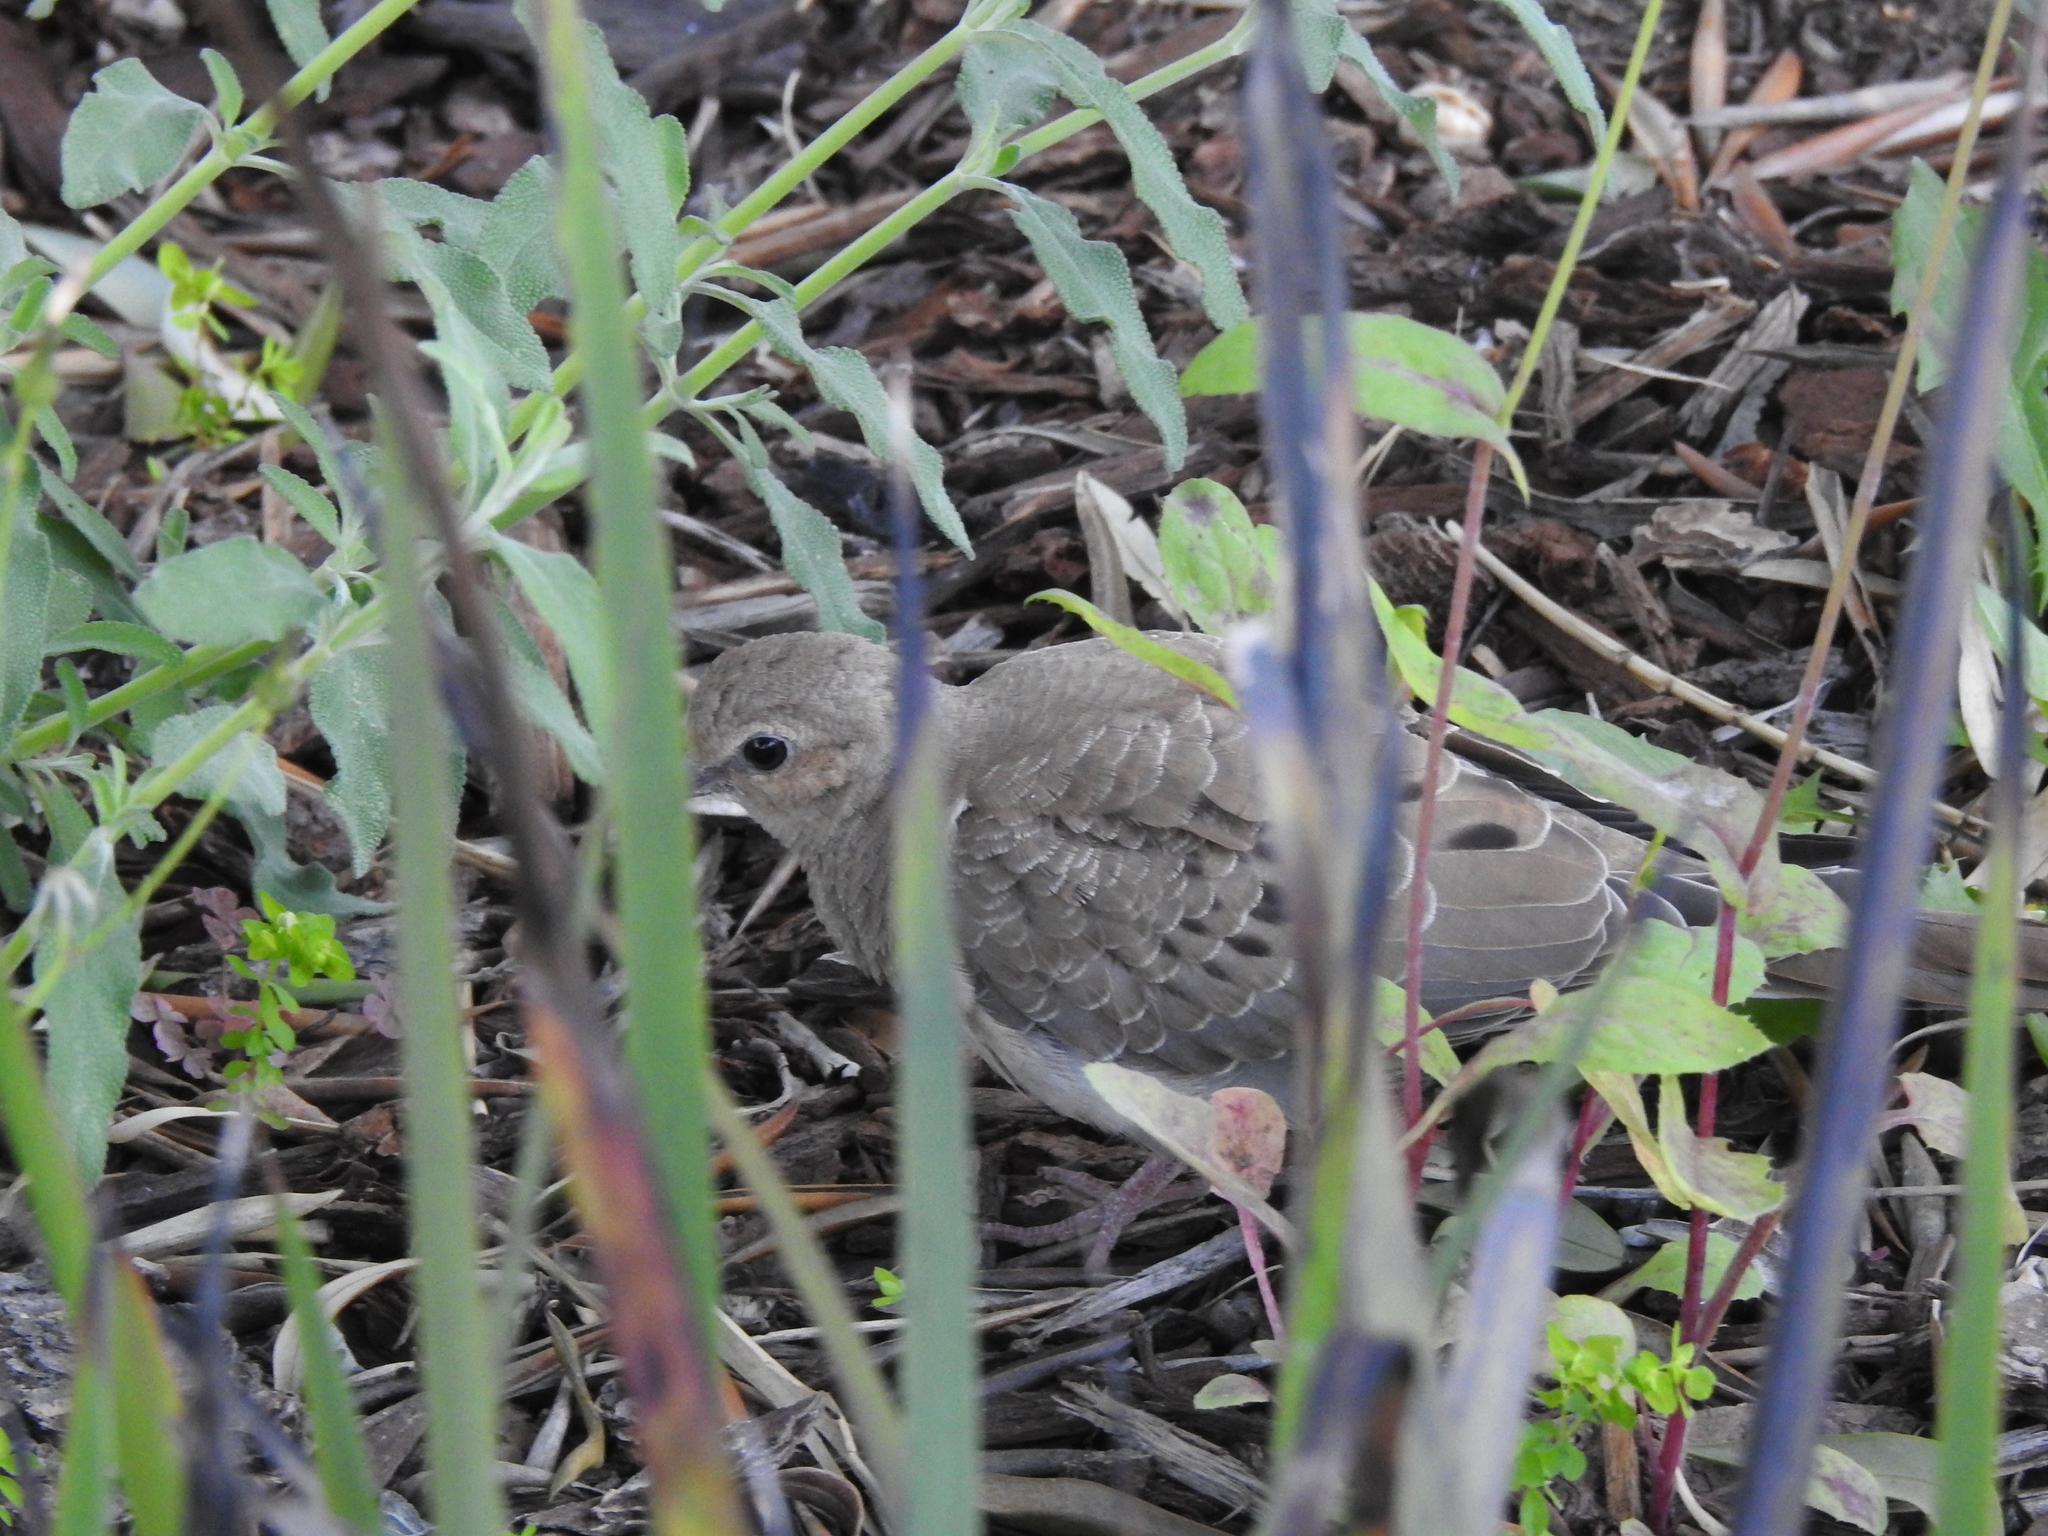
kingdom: Animalia
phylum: Chordata
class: Aves
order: Columbiformes
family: Columbidae
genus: Zenaida
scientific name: Zenaida macroura
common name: Mourning dove
